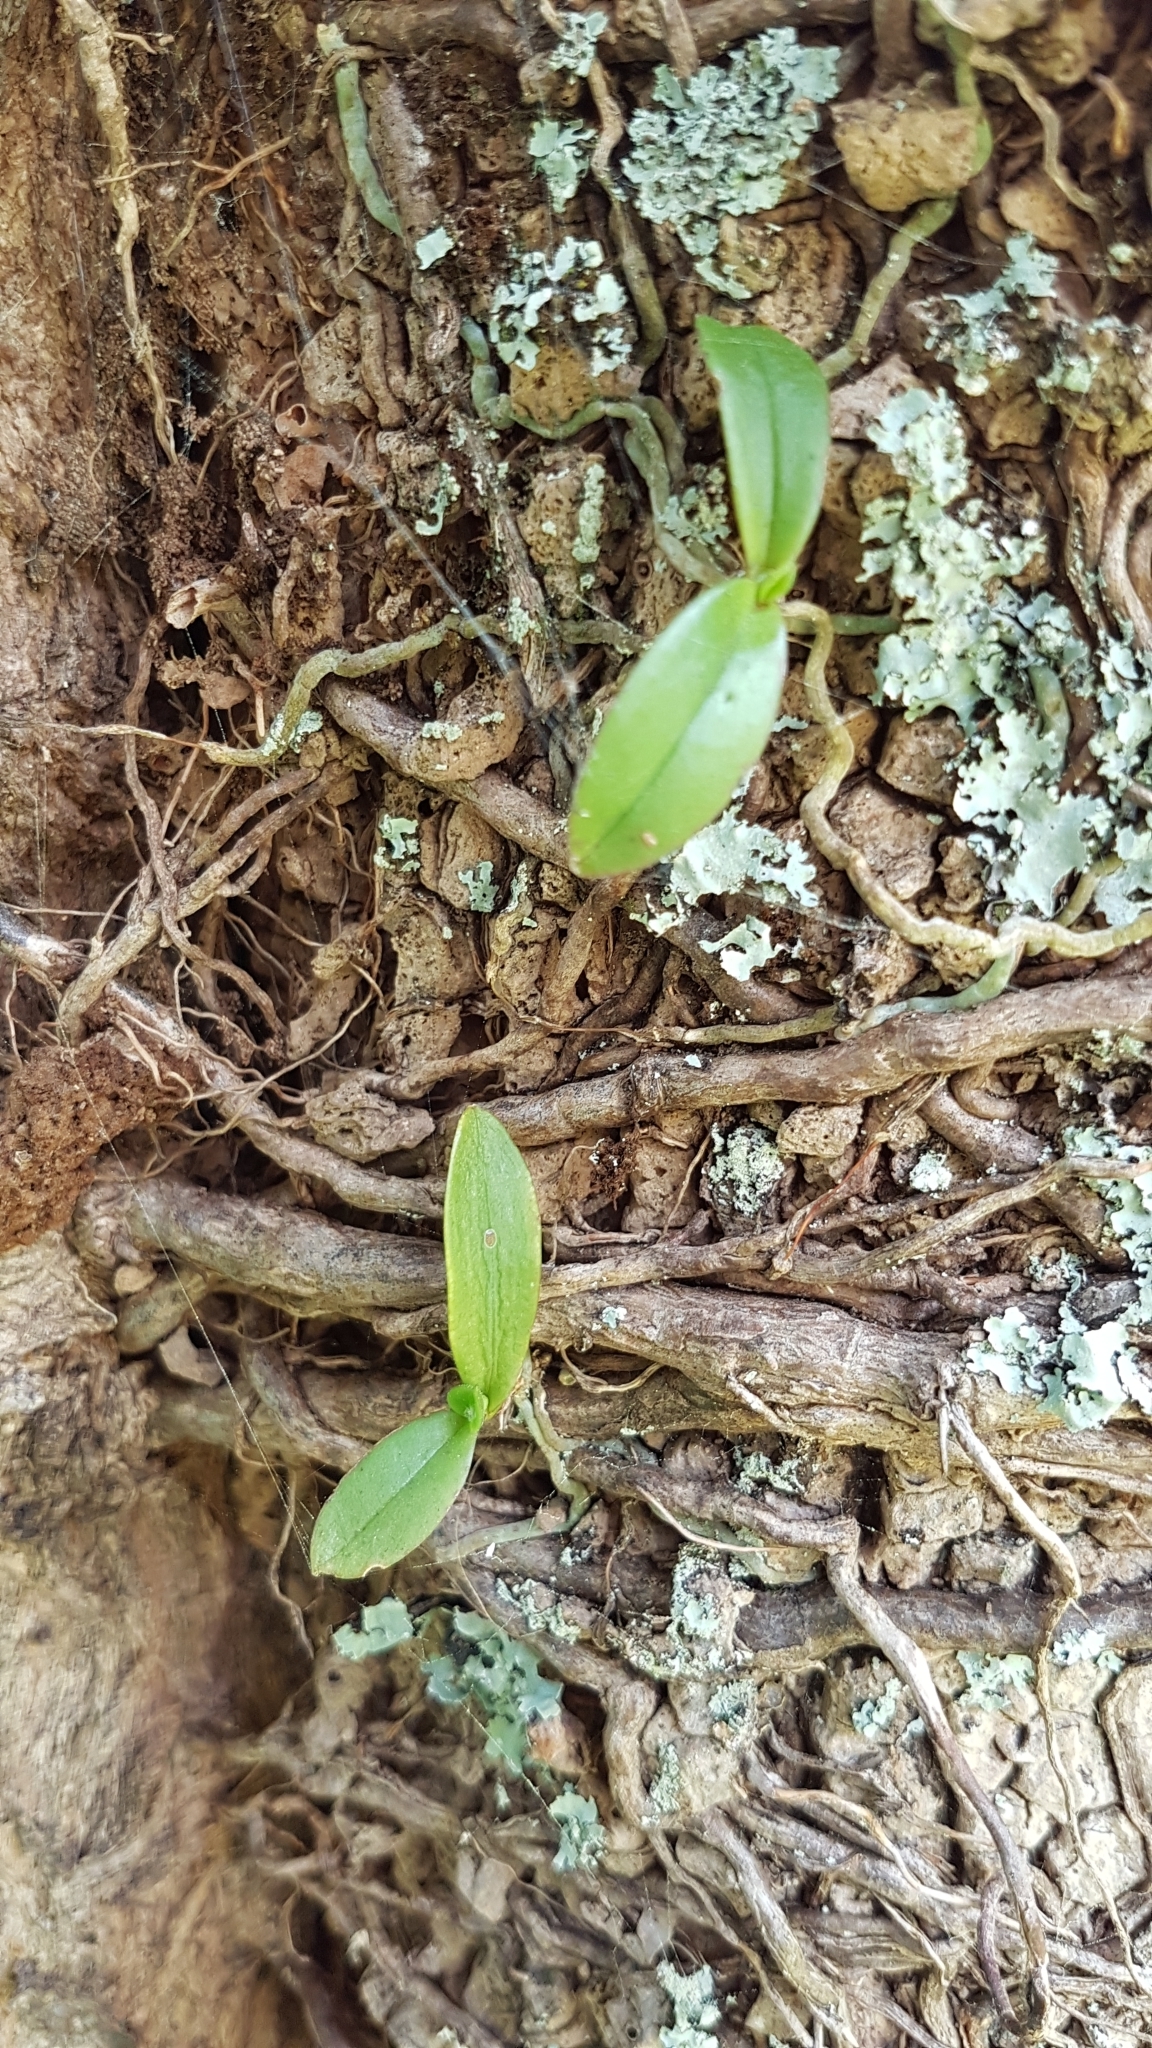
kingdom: Plantae
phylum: Tracheophyta
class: Liliopsida
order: Asparagales
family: Orchidaceae
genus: Drymoanthus
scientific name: Drymoanthus adversus
